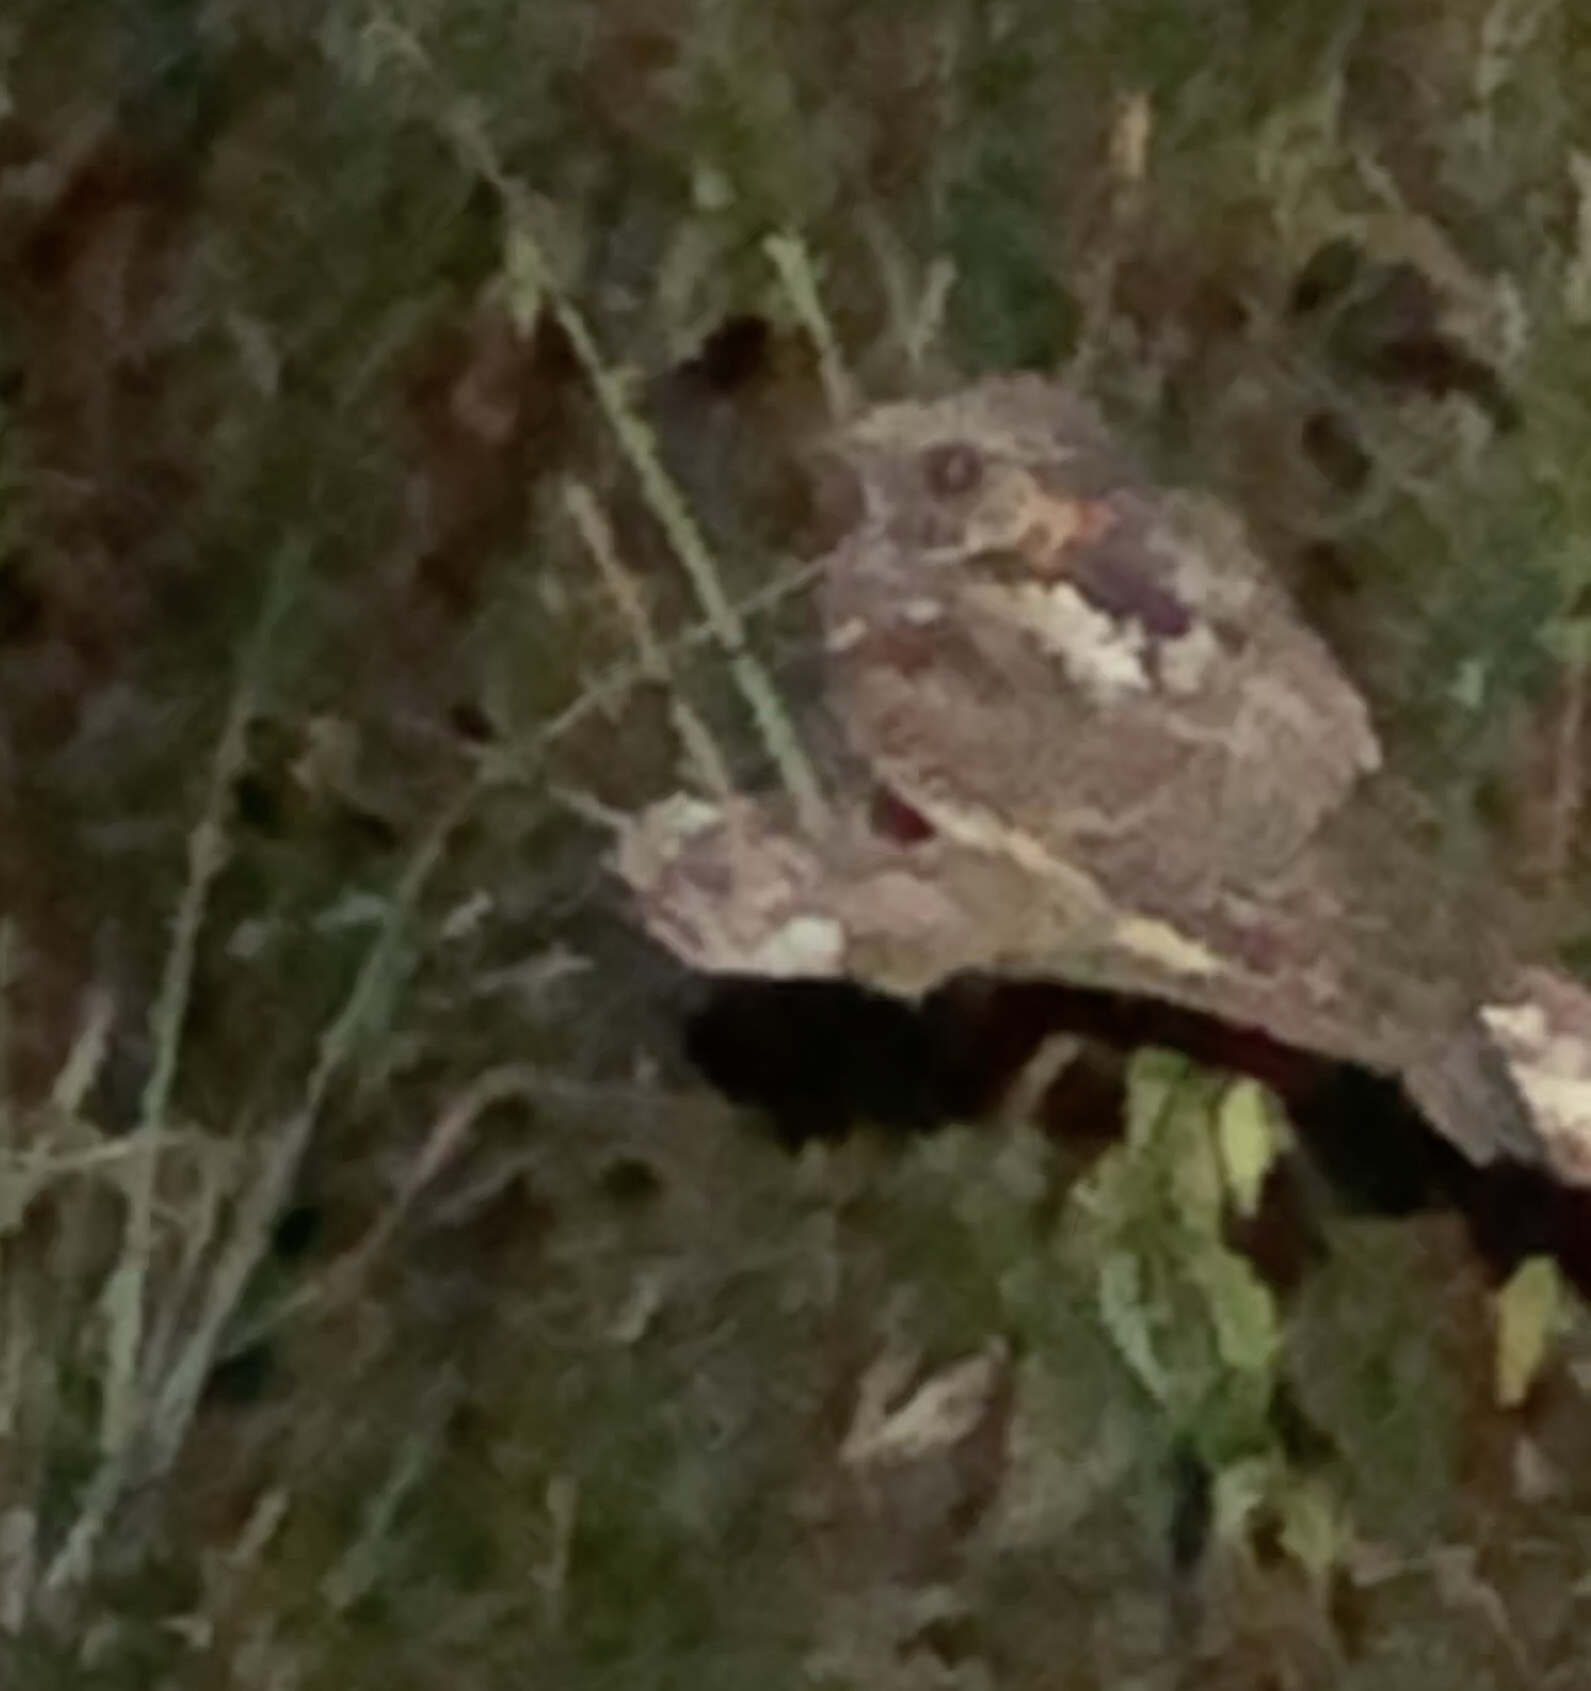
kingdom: Animalia
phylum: Chordata
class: Aves
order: Caprimulgiformes
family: Caprimulgidae
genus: Antrostomus
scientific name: Antrostomus vociferus
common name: Eastern whip-poor-will
